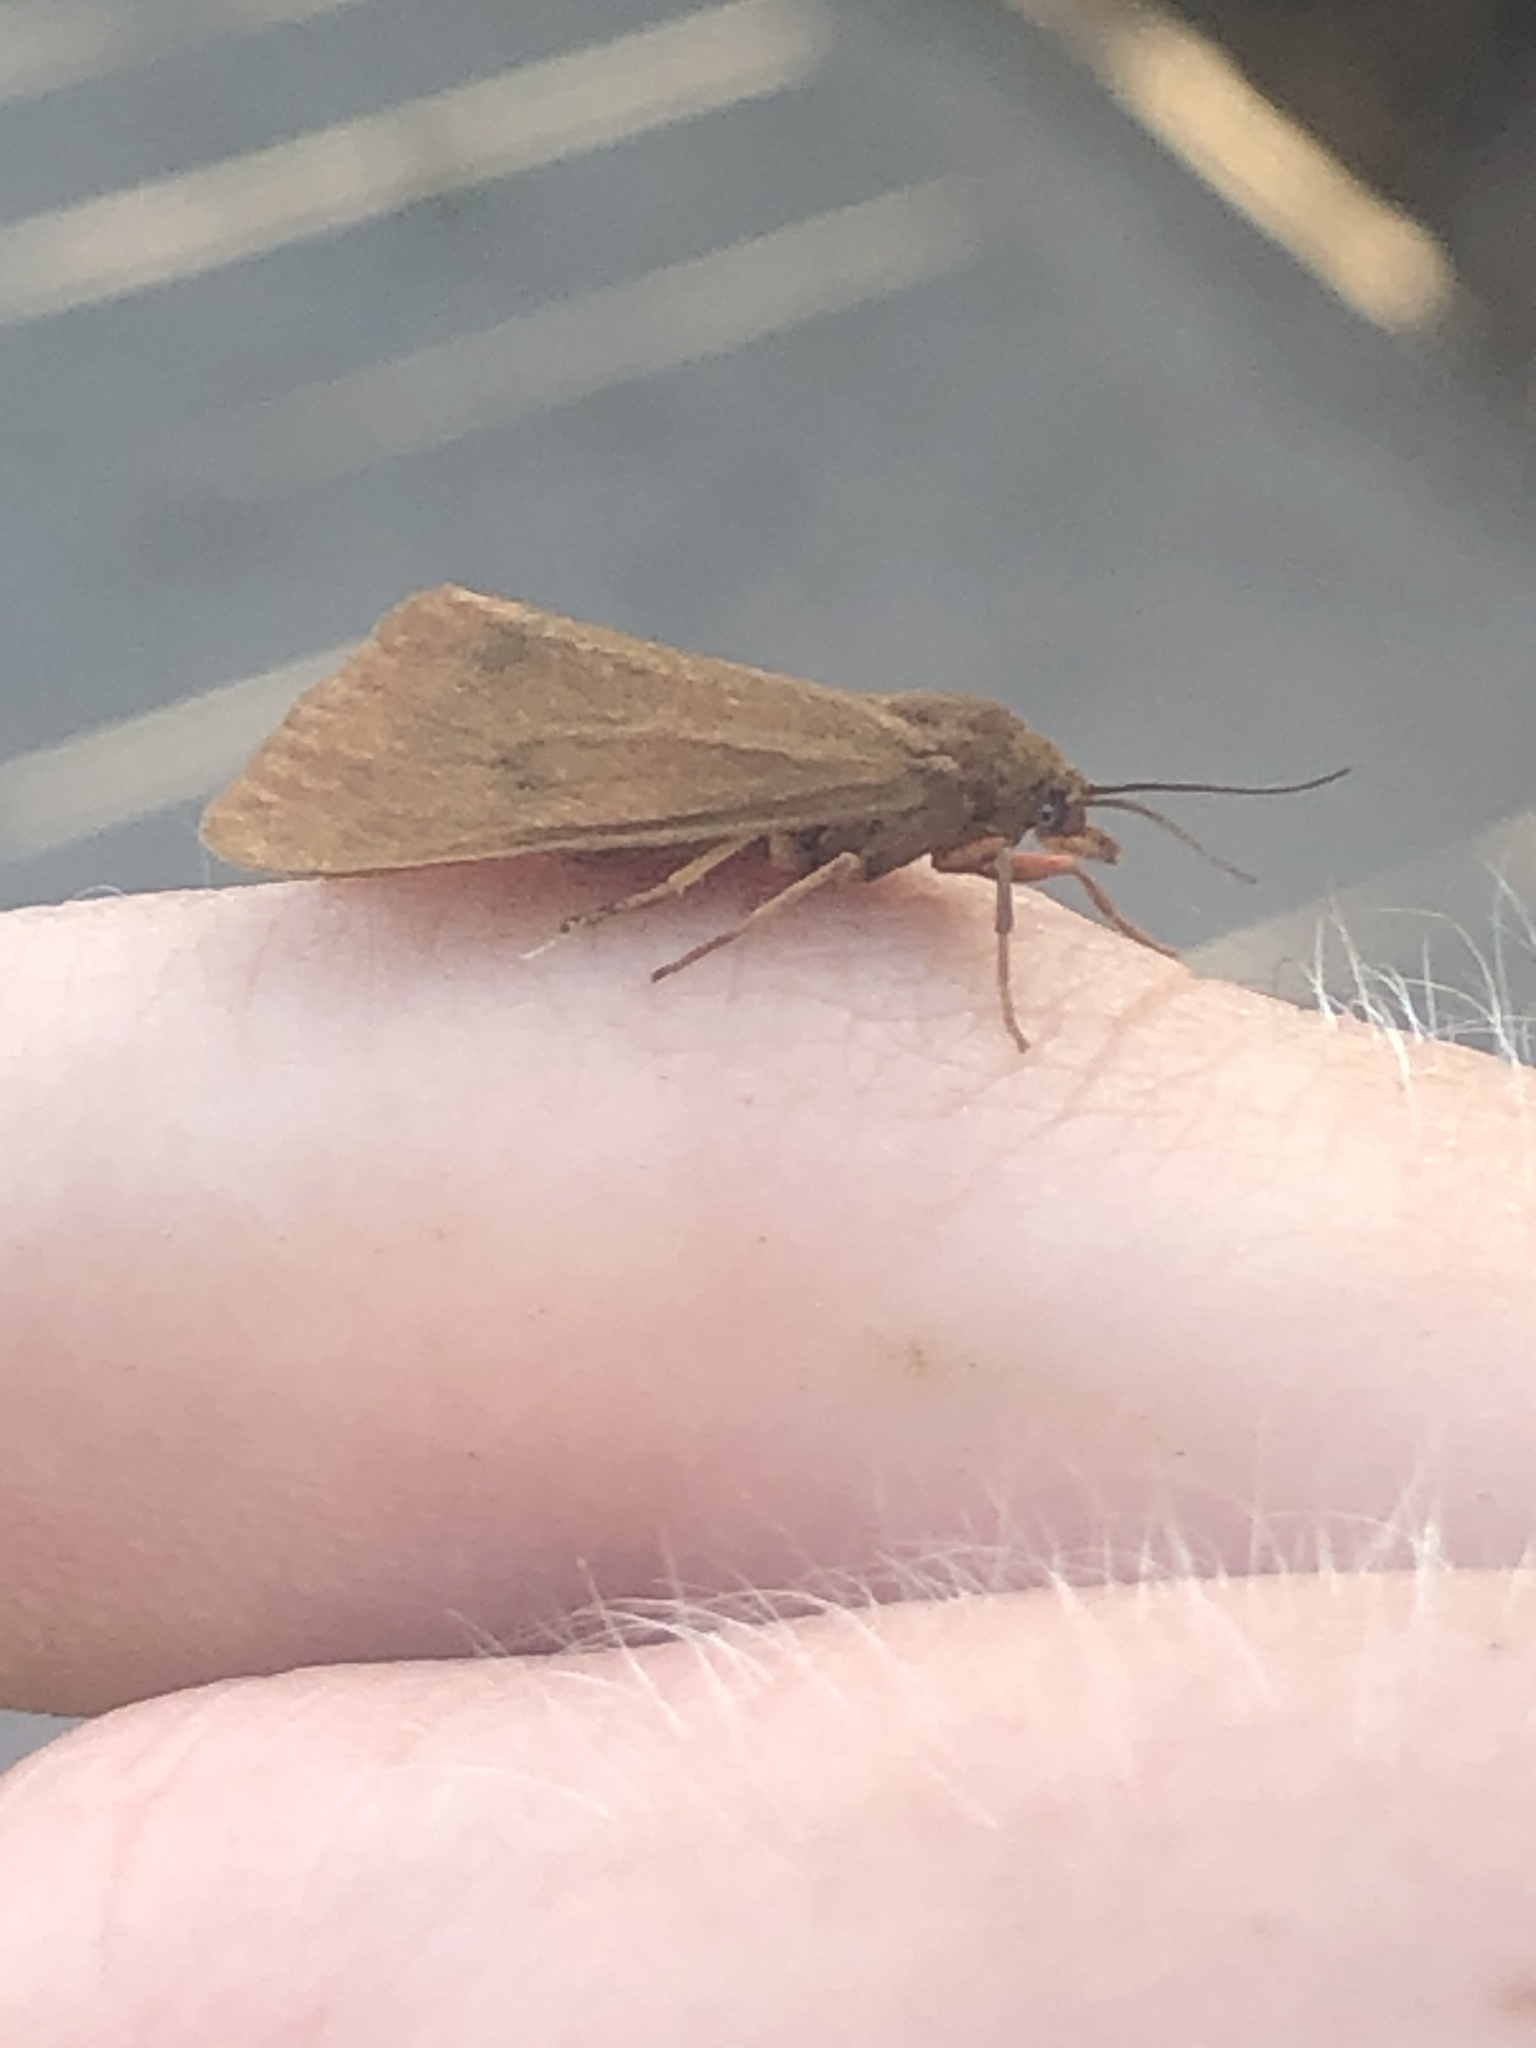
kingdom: Animalia
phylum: Arthropoda
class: Insecta
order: Lepidoptera
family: Erebidae
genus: Virbia
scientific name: Virbia aurantiaca
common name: Orange virbia moth
